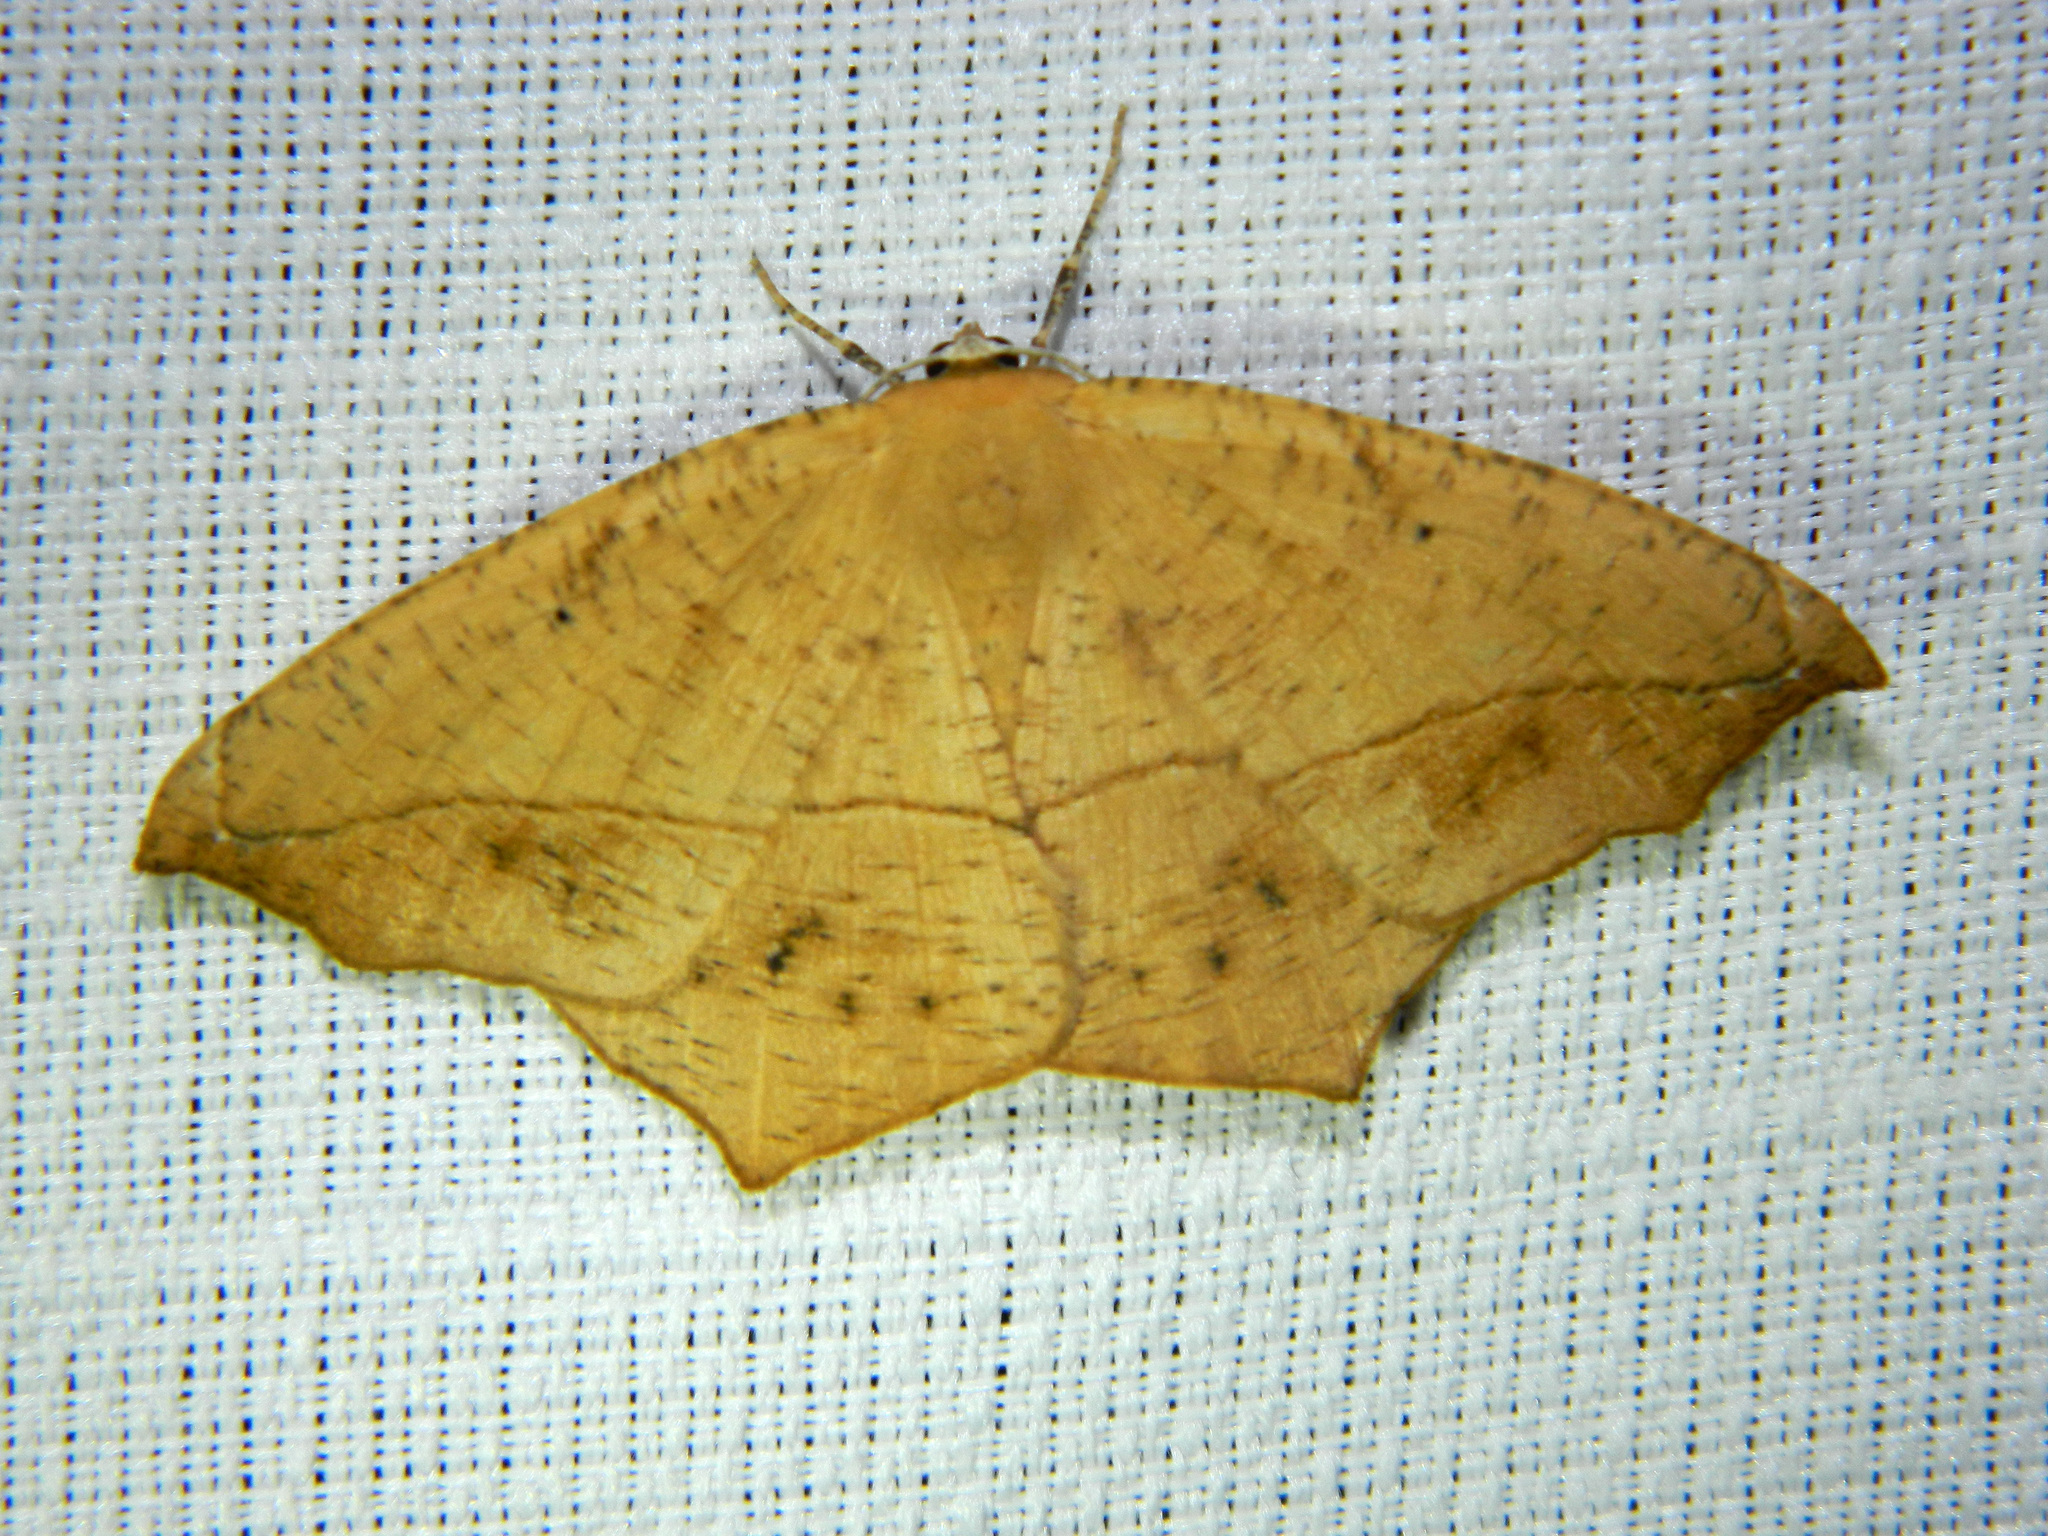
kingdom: Animalia
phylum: Arthropoda
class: Insecta
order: Lepidoptera
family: Geometridae
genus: Prochoerodes
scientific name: Prochoerodes lineola
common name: Large maple spanworm
